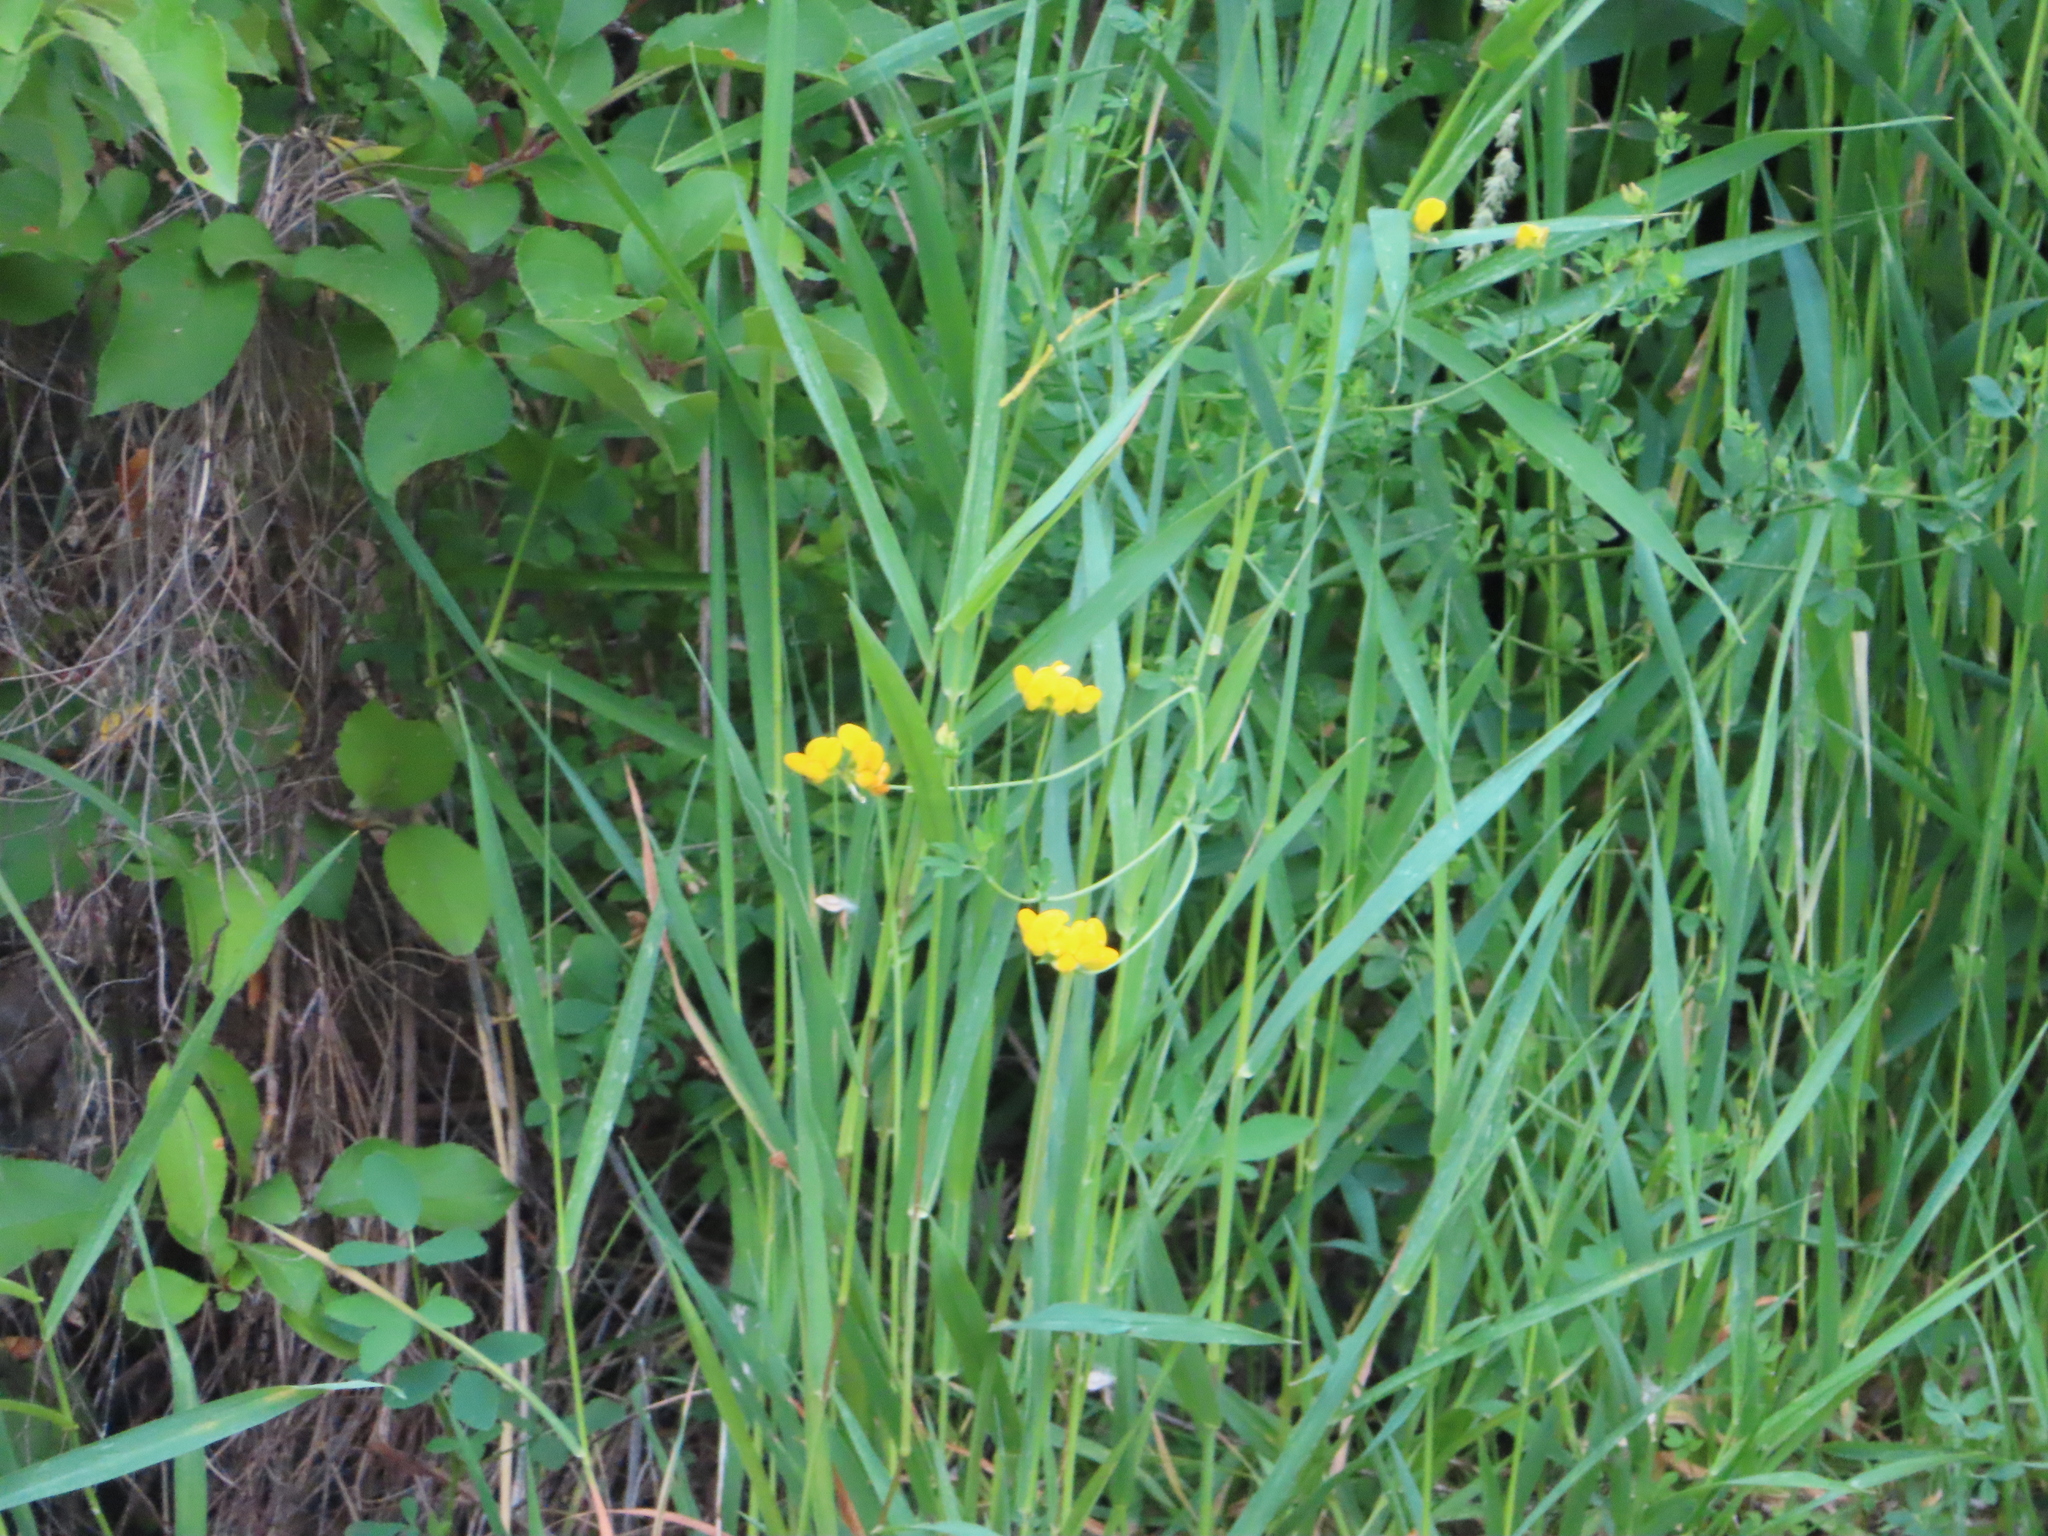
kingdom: Plantae
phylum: Tracheophyta
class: Magnoliopsida
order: Fabales
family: Fabaceae
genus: Lotus
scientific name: Lotus corniculatus
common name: Common bird's-foot-trefoil
